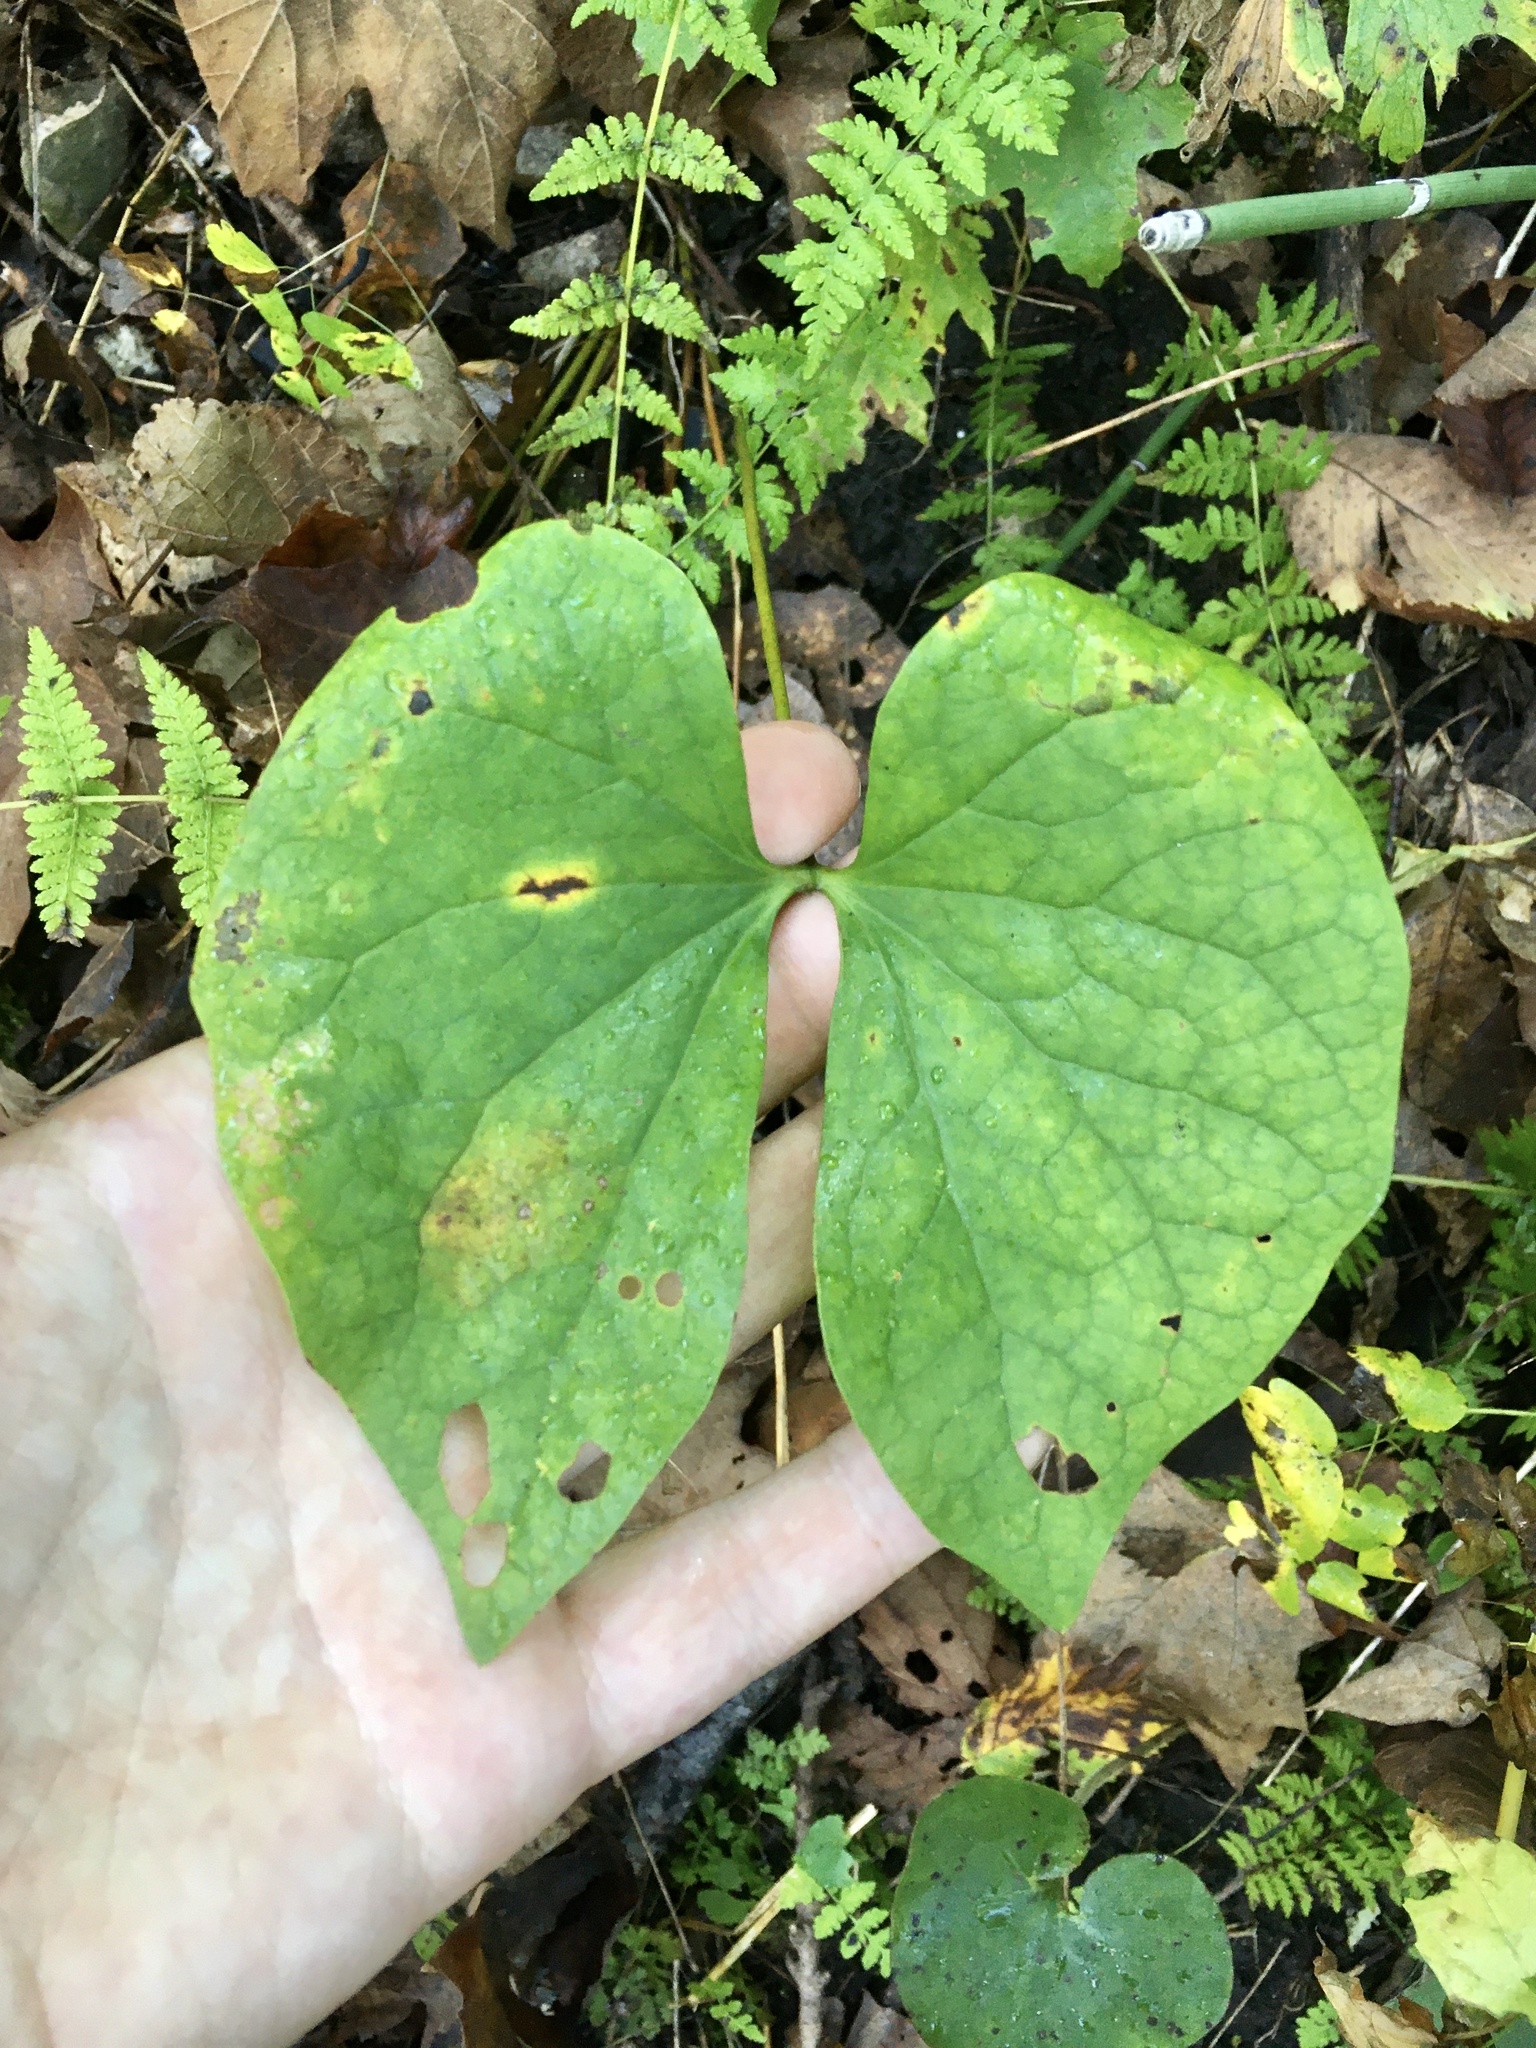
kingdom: Plantae
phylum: Tracheophyta
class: Magnoliopsida
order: Ranunculales
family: Berberidaceae
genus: Jeffersonia
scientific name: Jeffersonia diphylla
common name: Rheumatism-root
